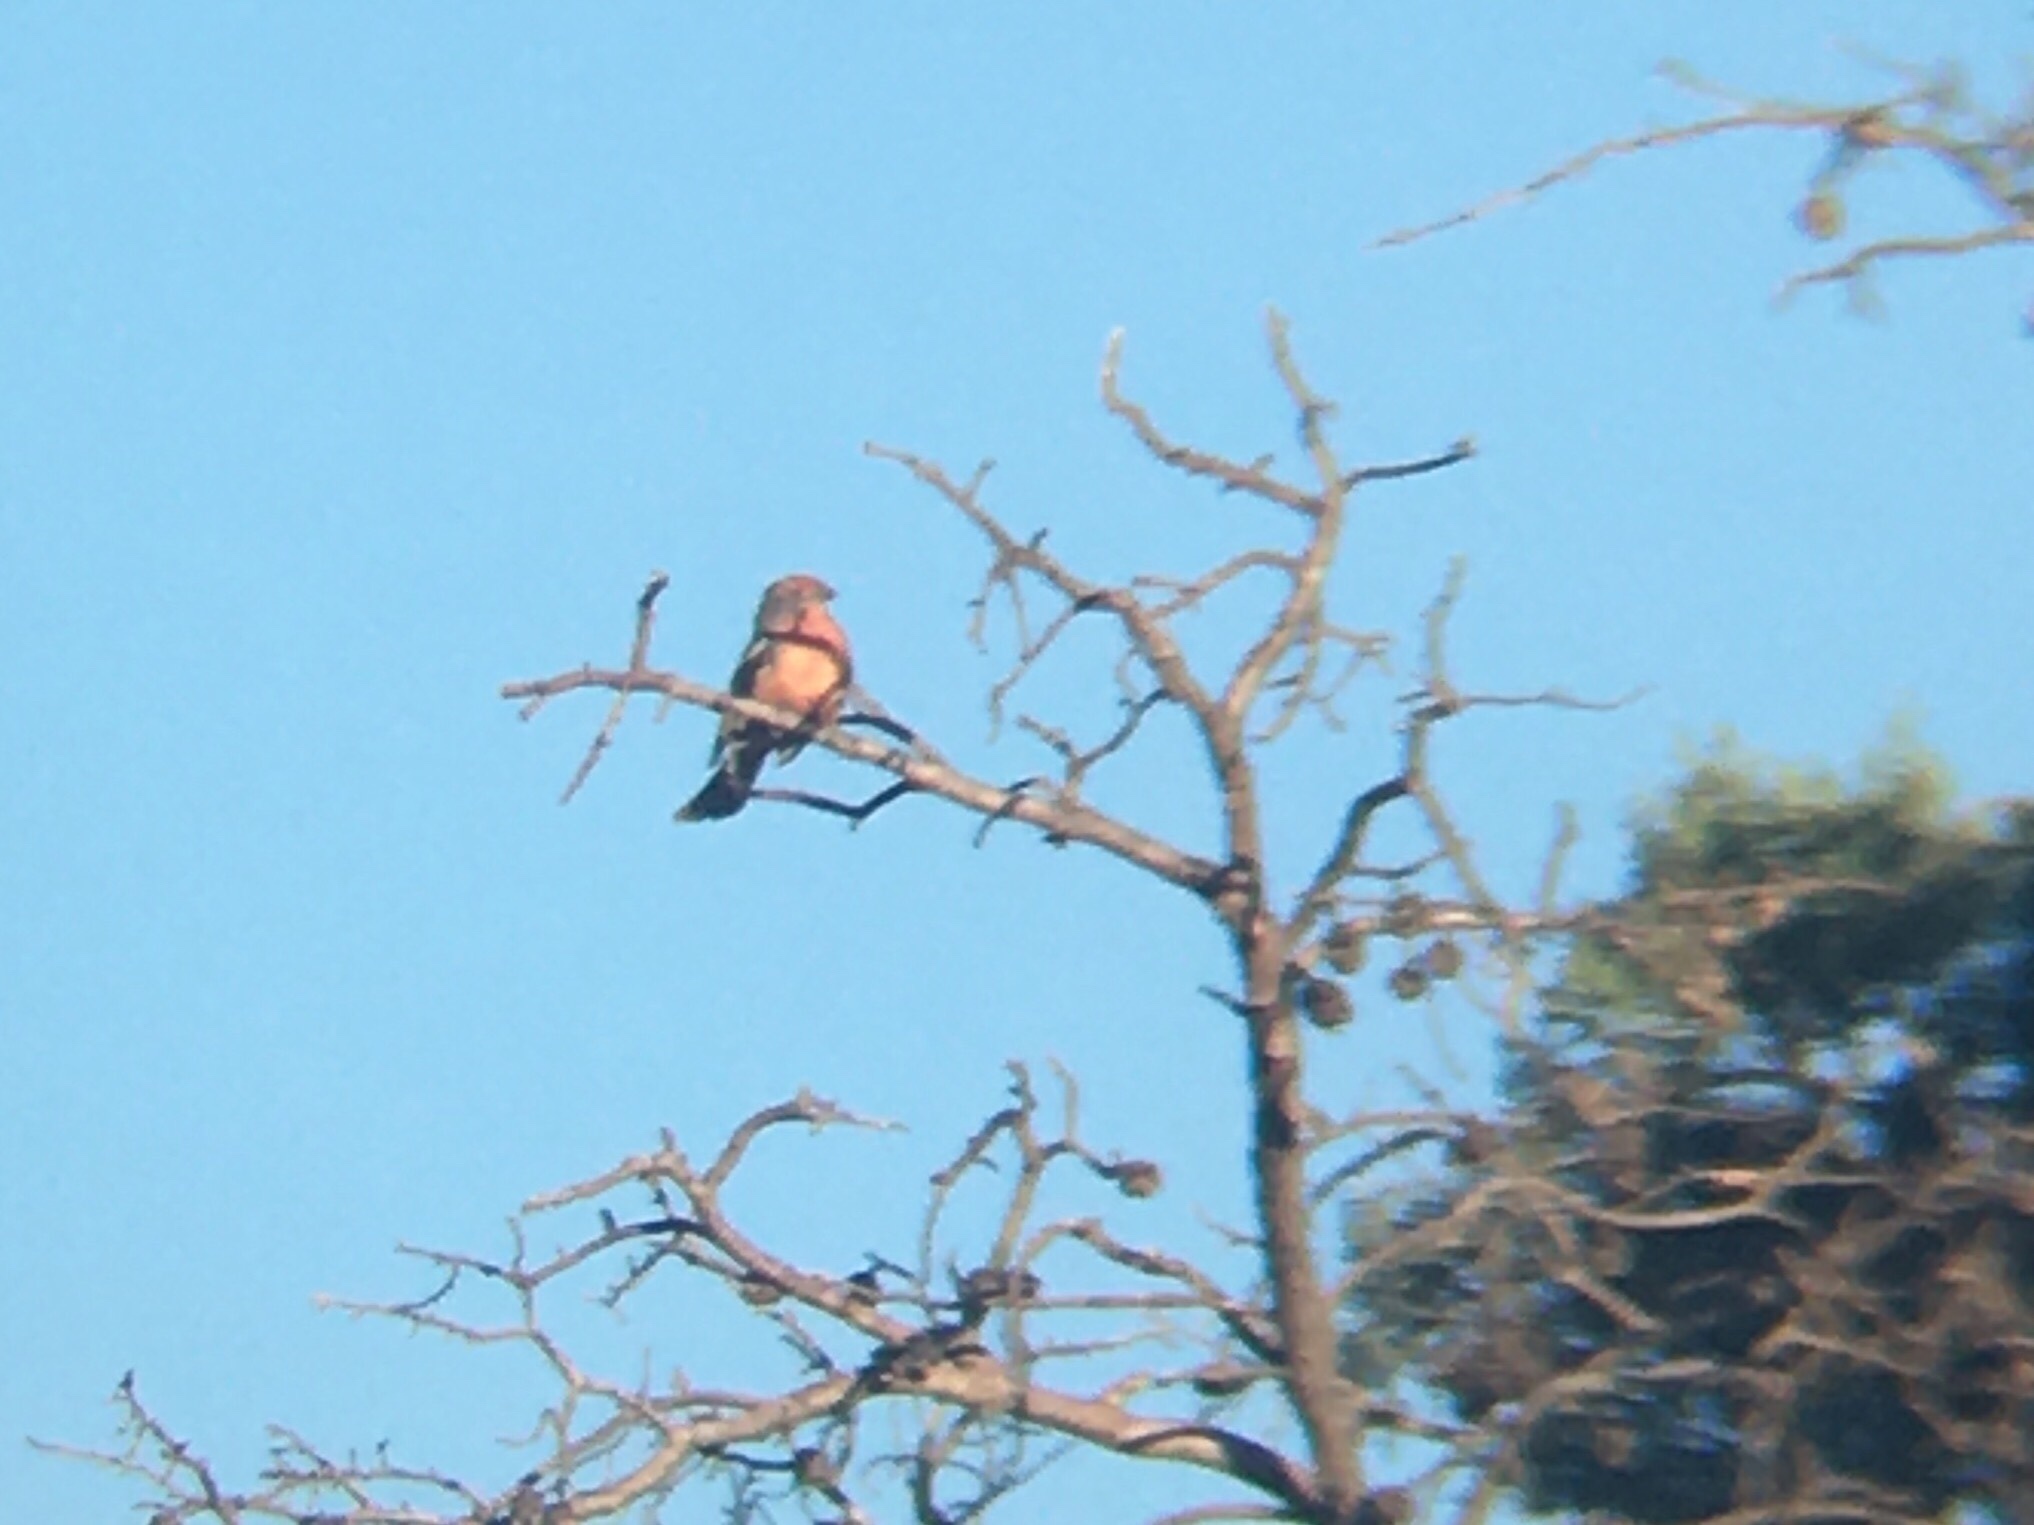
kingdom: Animalia
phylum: Chordata
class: Aves
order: Passeriformes
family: Cotingidae
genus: Phytotoma
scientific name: Phytotoma rutila
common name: White-tipped plantcutter
